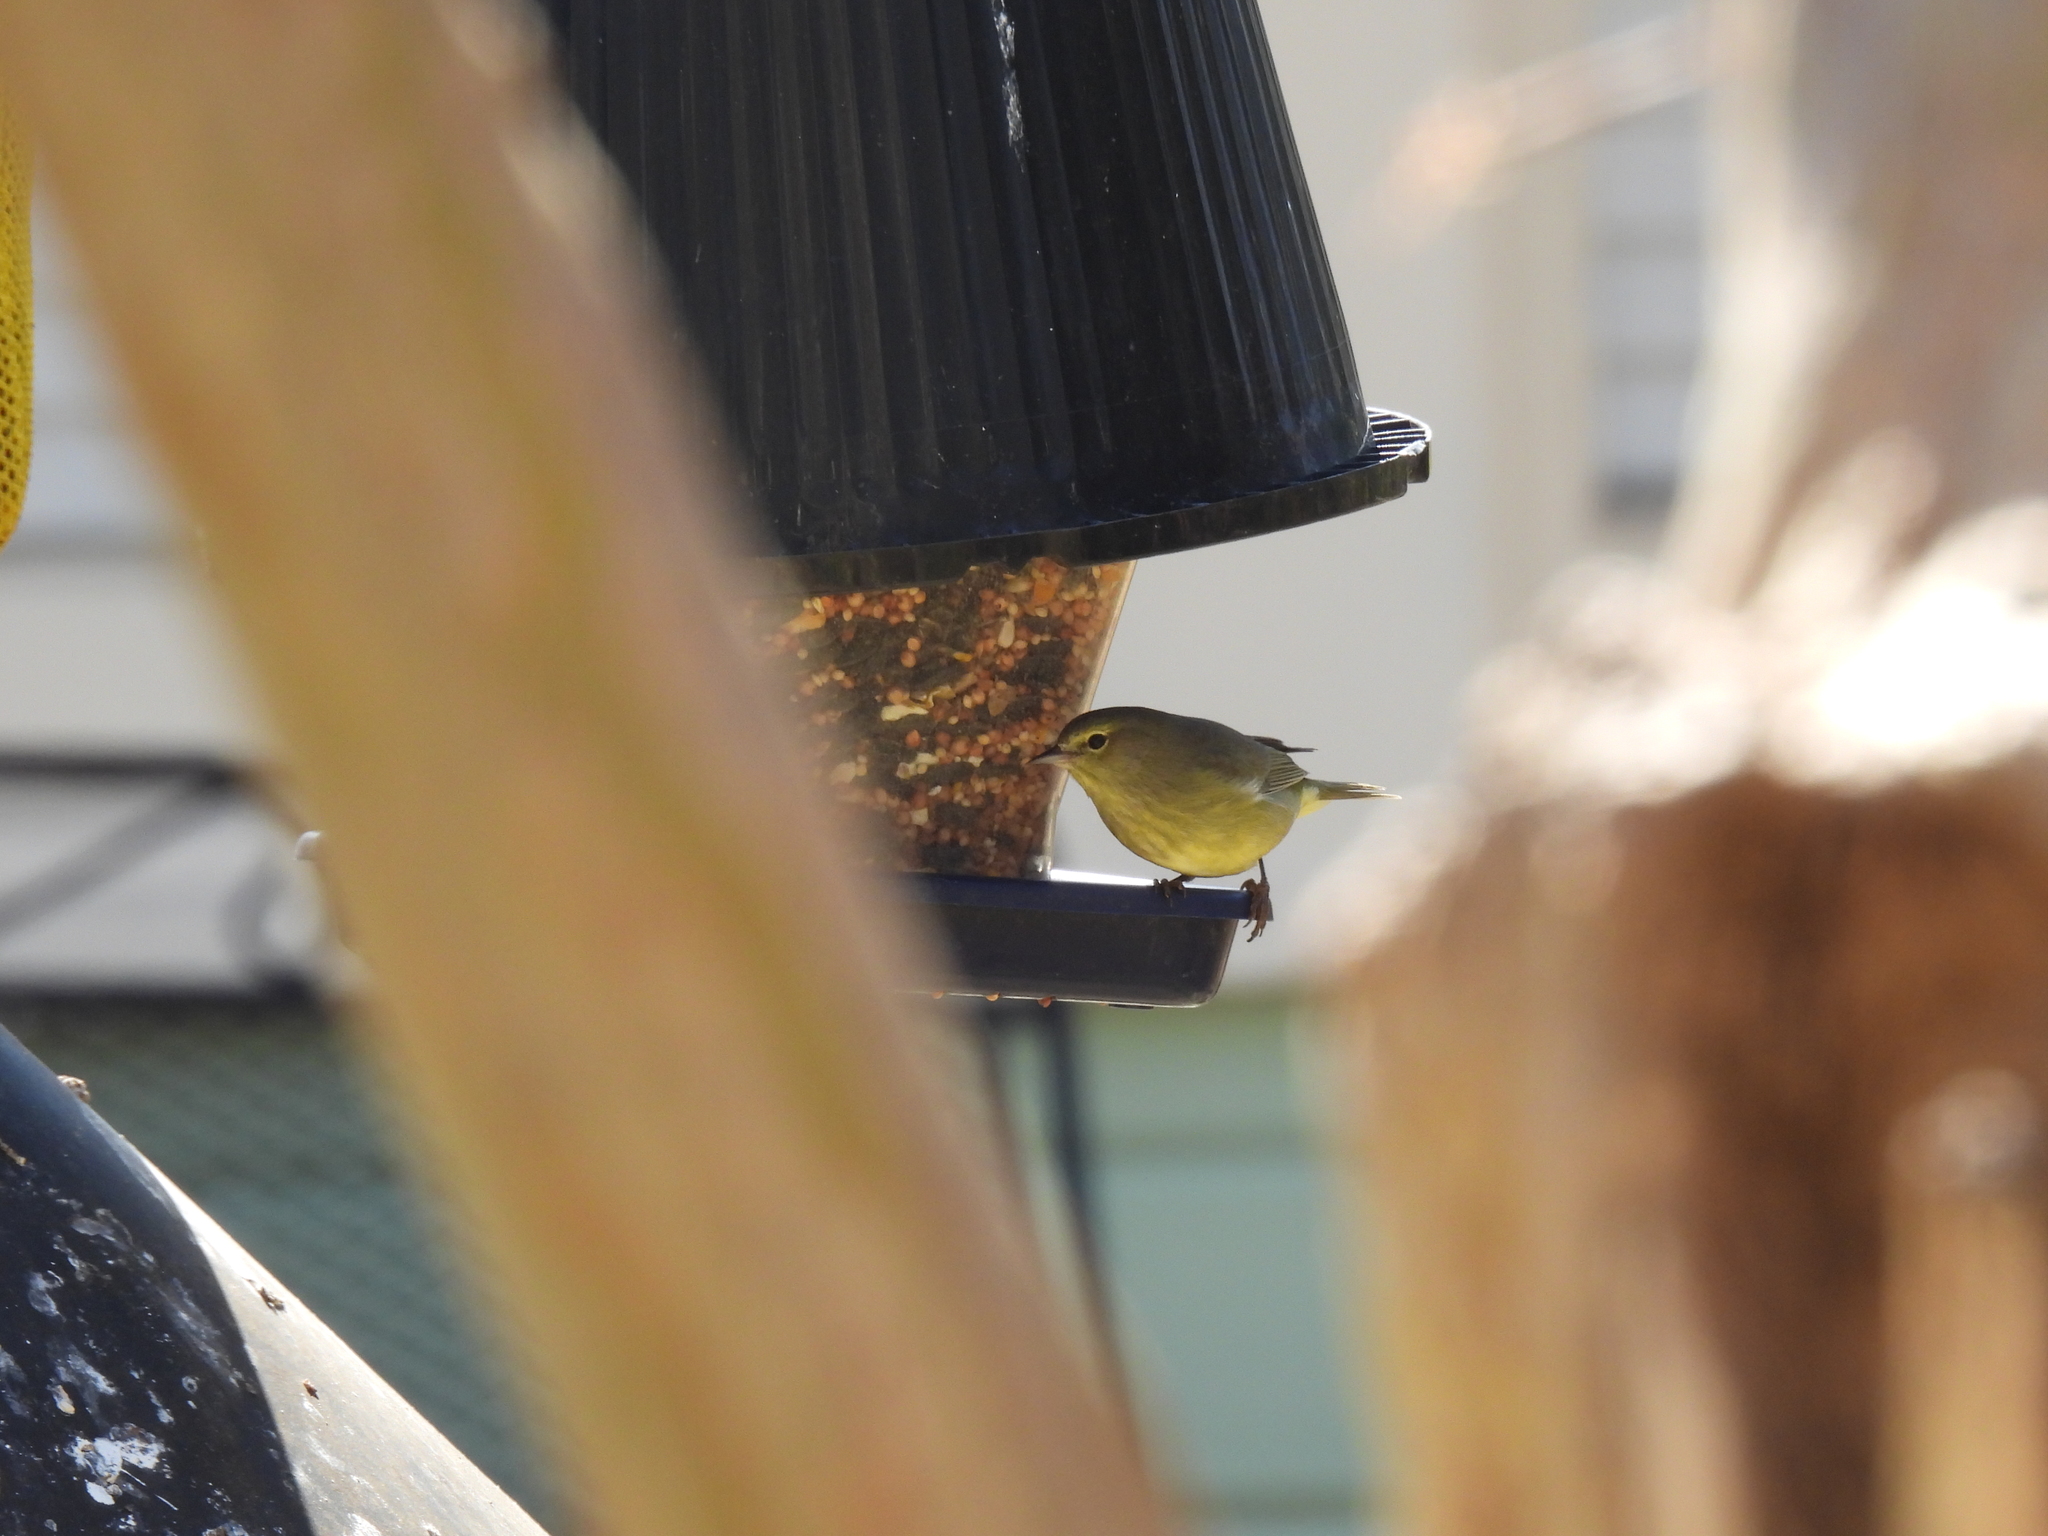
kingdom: Animalia
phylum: Chordata
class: Aves
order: Passeriformes
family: Parulidae
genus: Leiothlypis
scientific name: Leiothlypis celata
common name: Orange-crowned warbler
